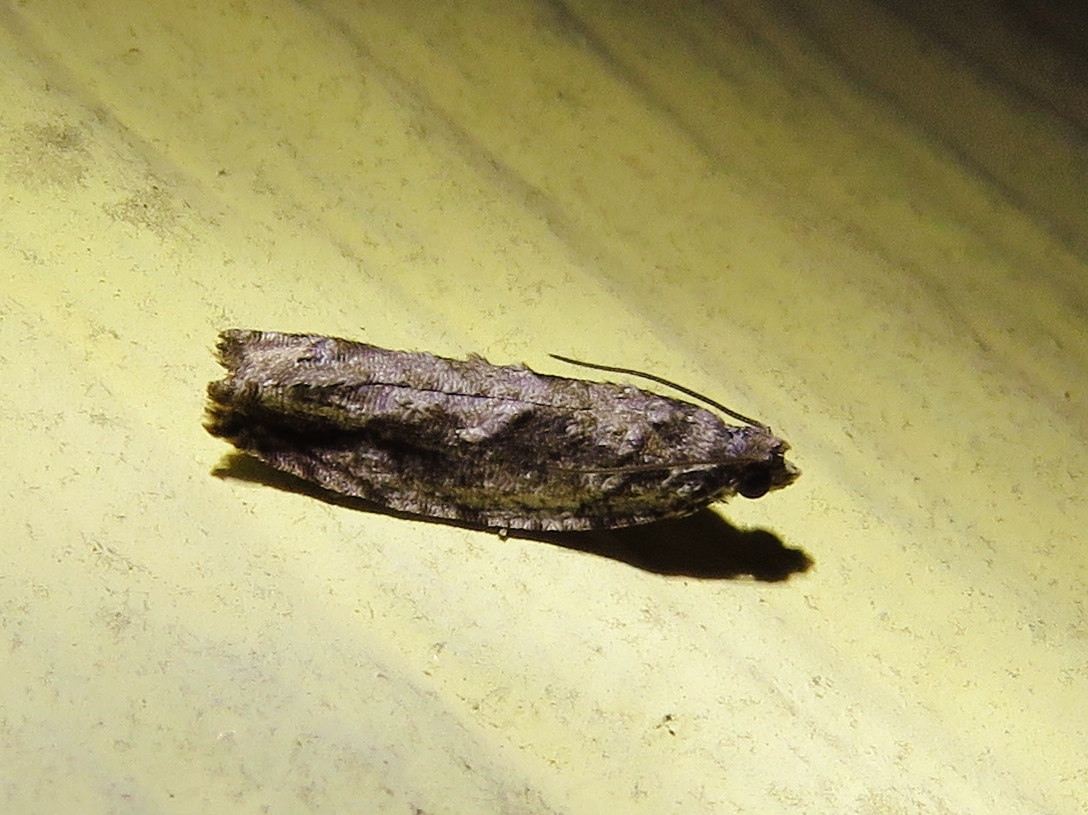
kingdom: Animalia
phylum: Arthropoda
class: Insecta
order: Lepidoptera
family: Tortricidae
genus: Gretchena
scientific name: Gretchena bolliana
